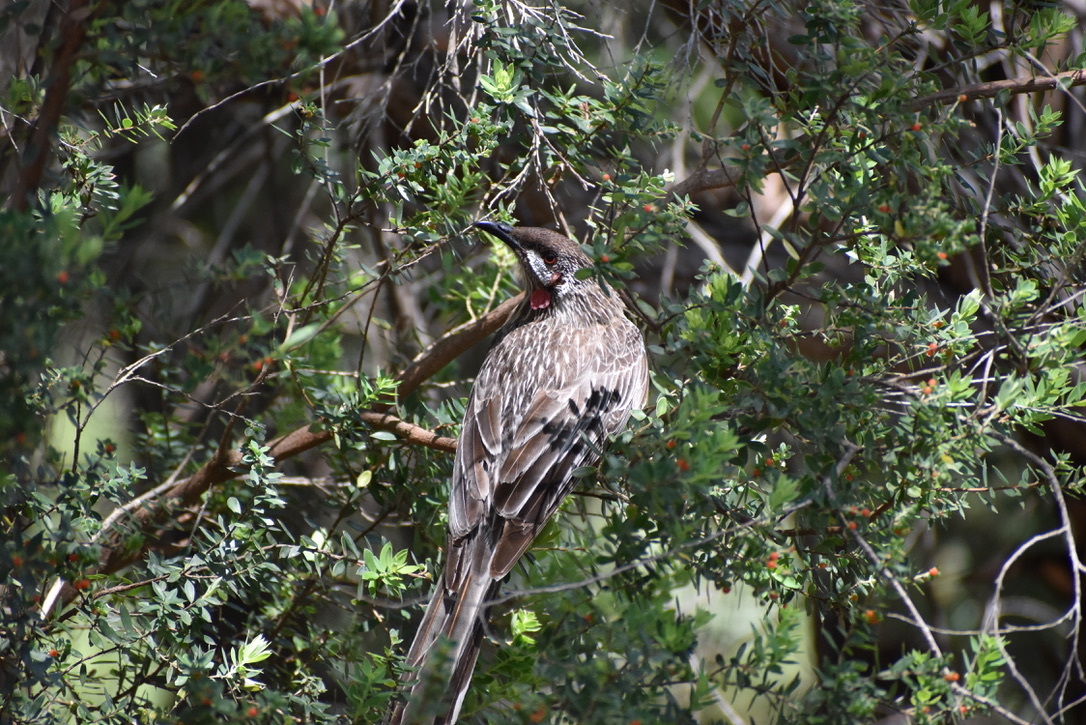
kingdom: Animalia
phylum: Chordata
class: Aves
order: Passeriformes
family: Meliphagidae
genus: Anthochaera
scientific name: Anthochaera carunculata
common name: Red wattlebird
